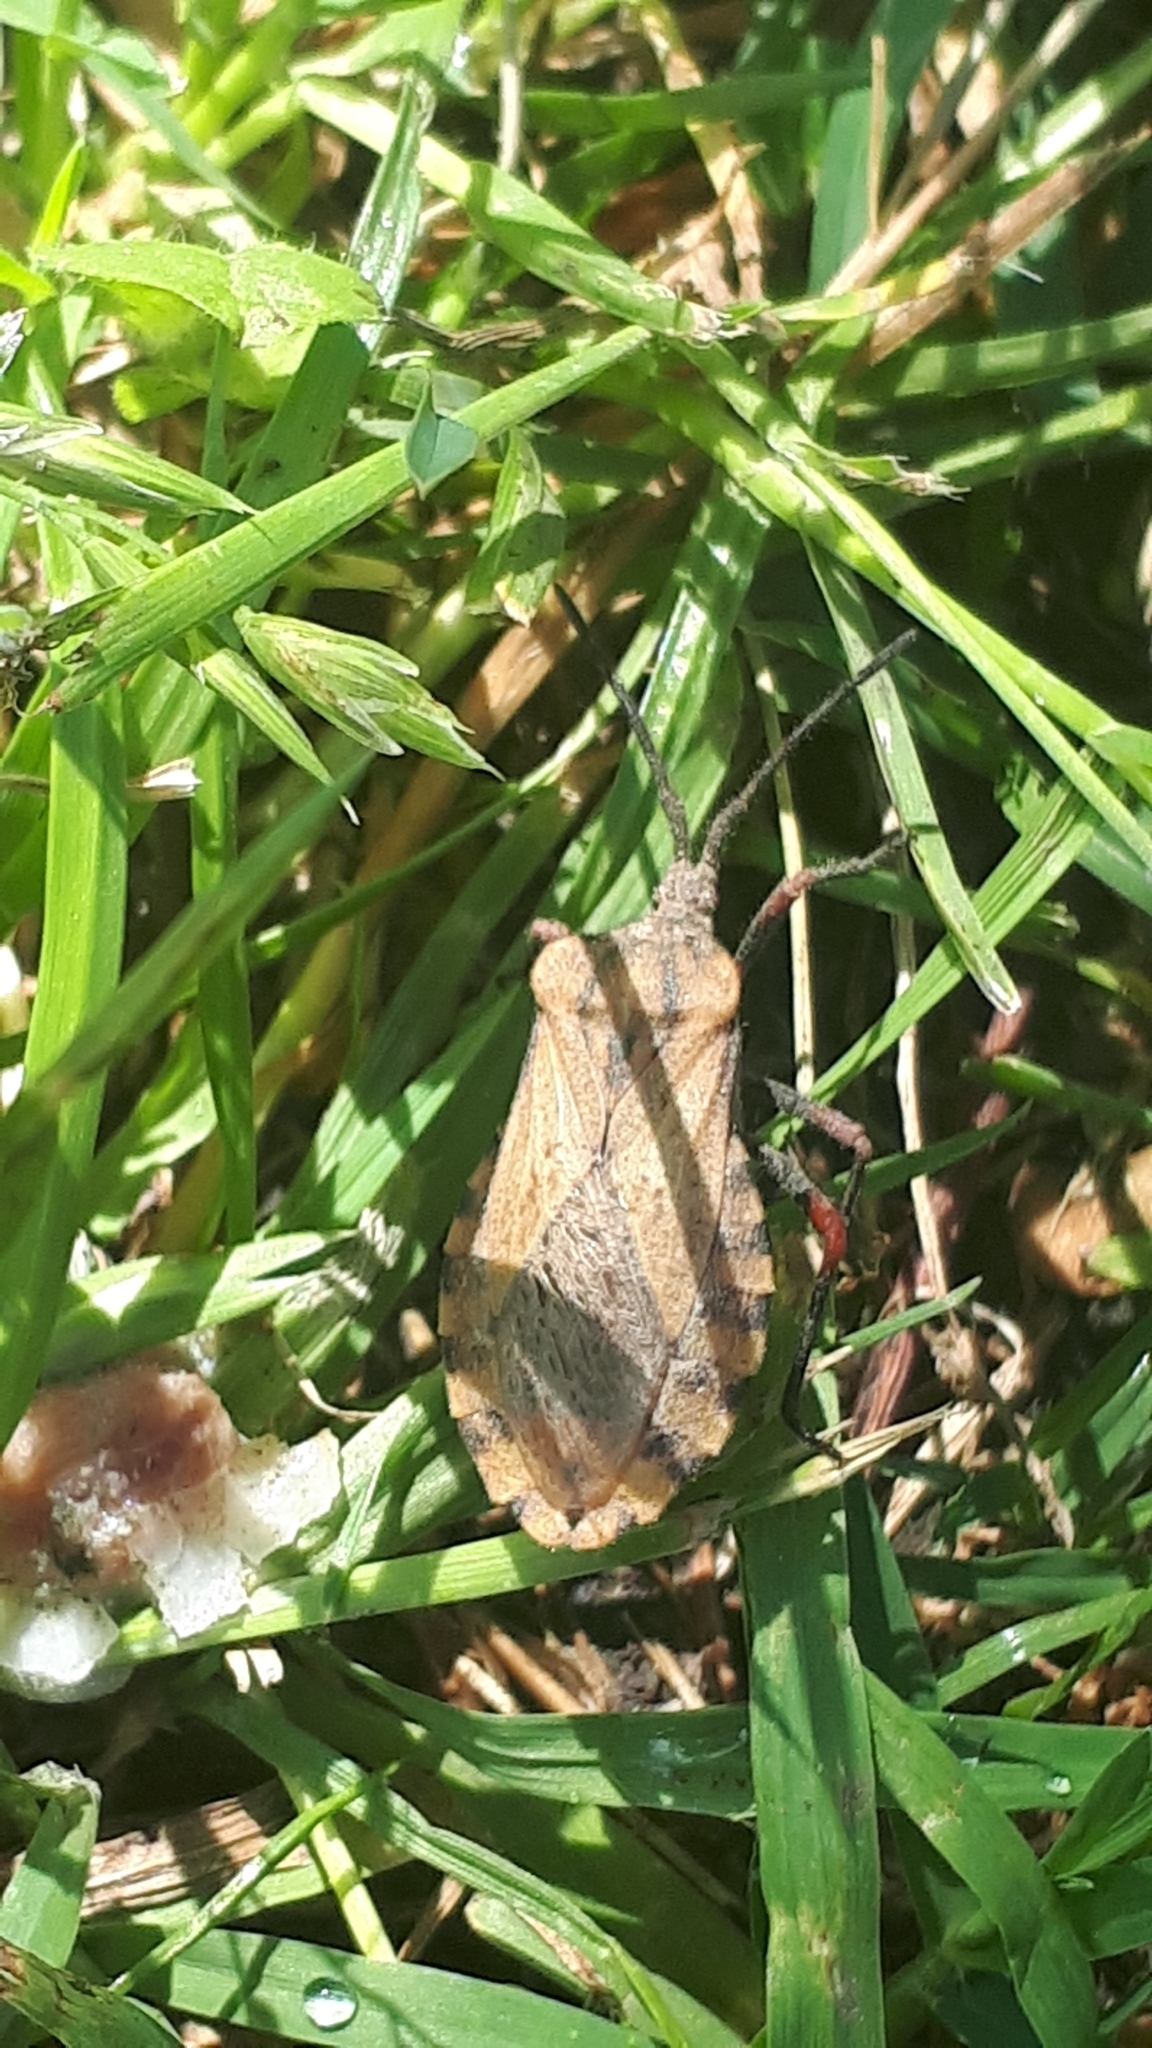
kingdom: Animalia
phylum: Arthropoda
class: Insecta
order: Hemiptera
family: Coreidae
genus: Spartocera
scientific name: Spartocera fusca
